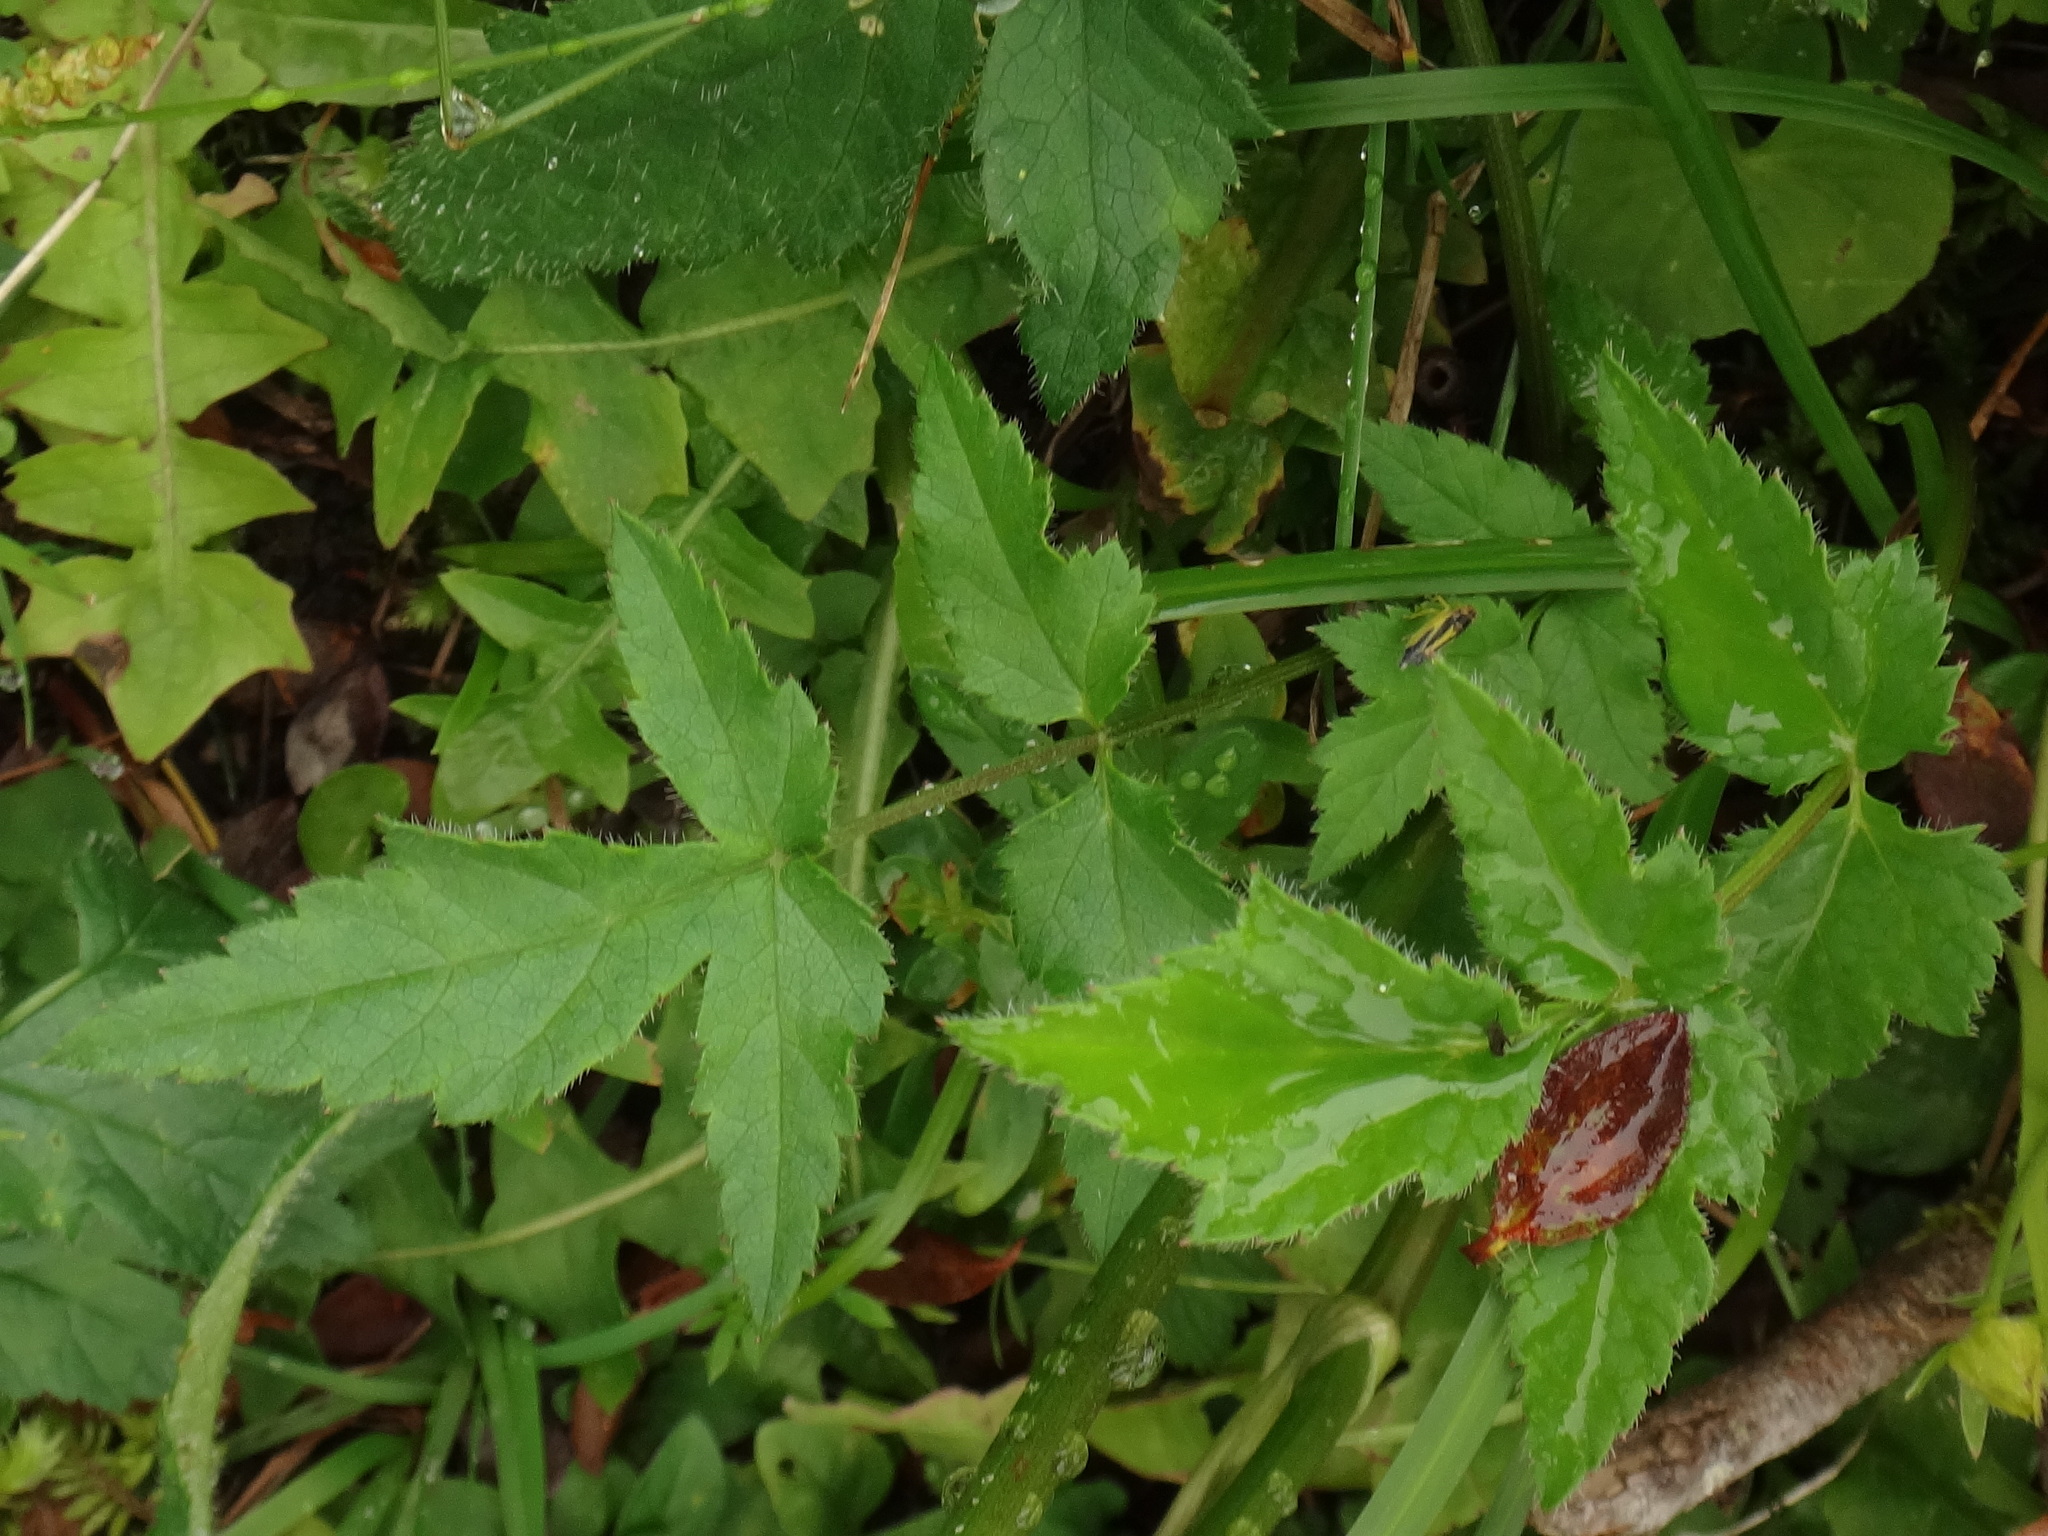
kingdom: Plantae
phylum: Tracheophyta
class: Magnoliopsida
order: Apiales
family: Apiaceae
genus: Heracleum
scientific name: Heracleum austriacum
